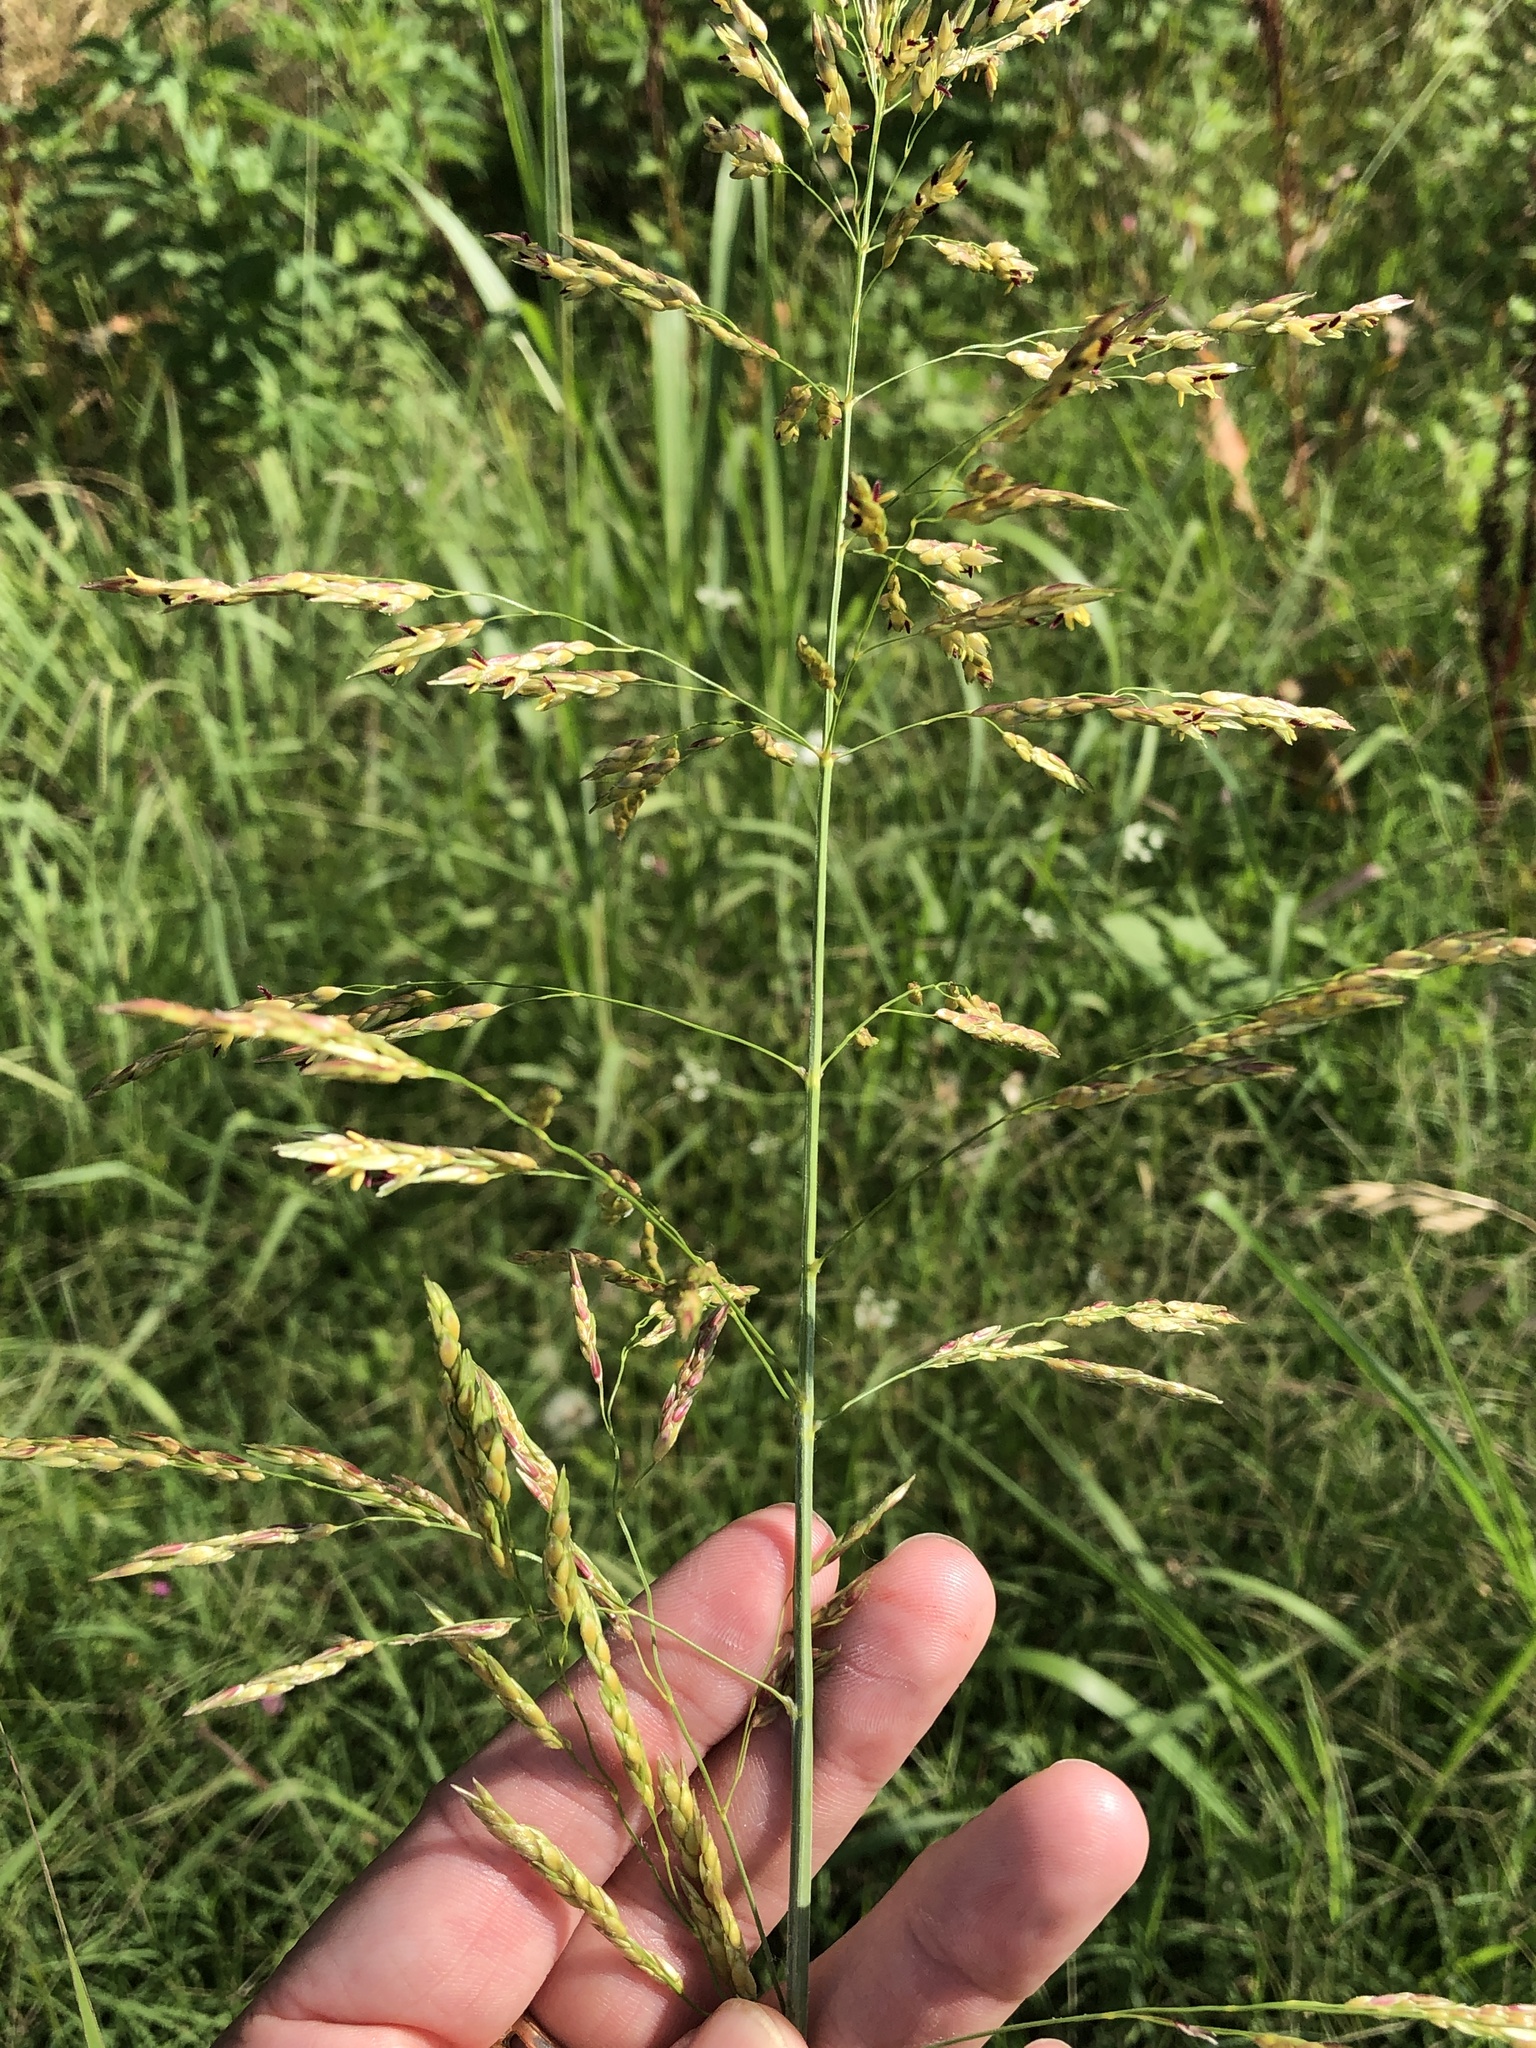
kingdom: Plantae
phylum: Tracheophyta
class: Liliopsida
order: Poales
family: Poaceae
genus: Sorghum
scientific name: Sorghum halepense
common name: Johnson-grass
